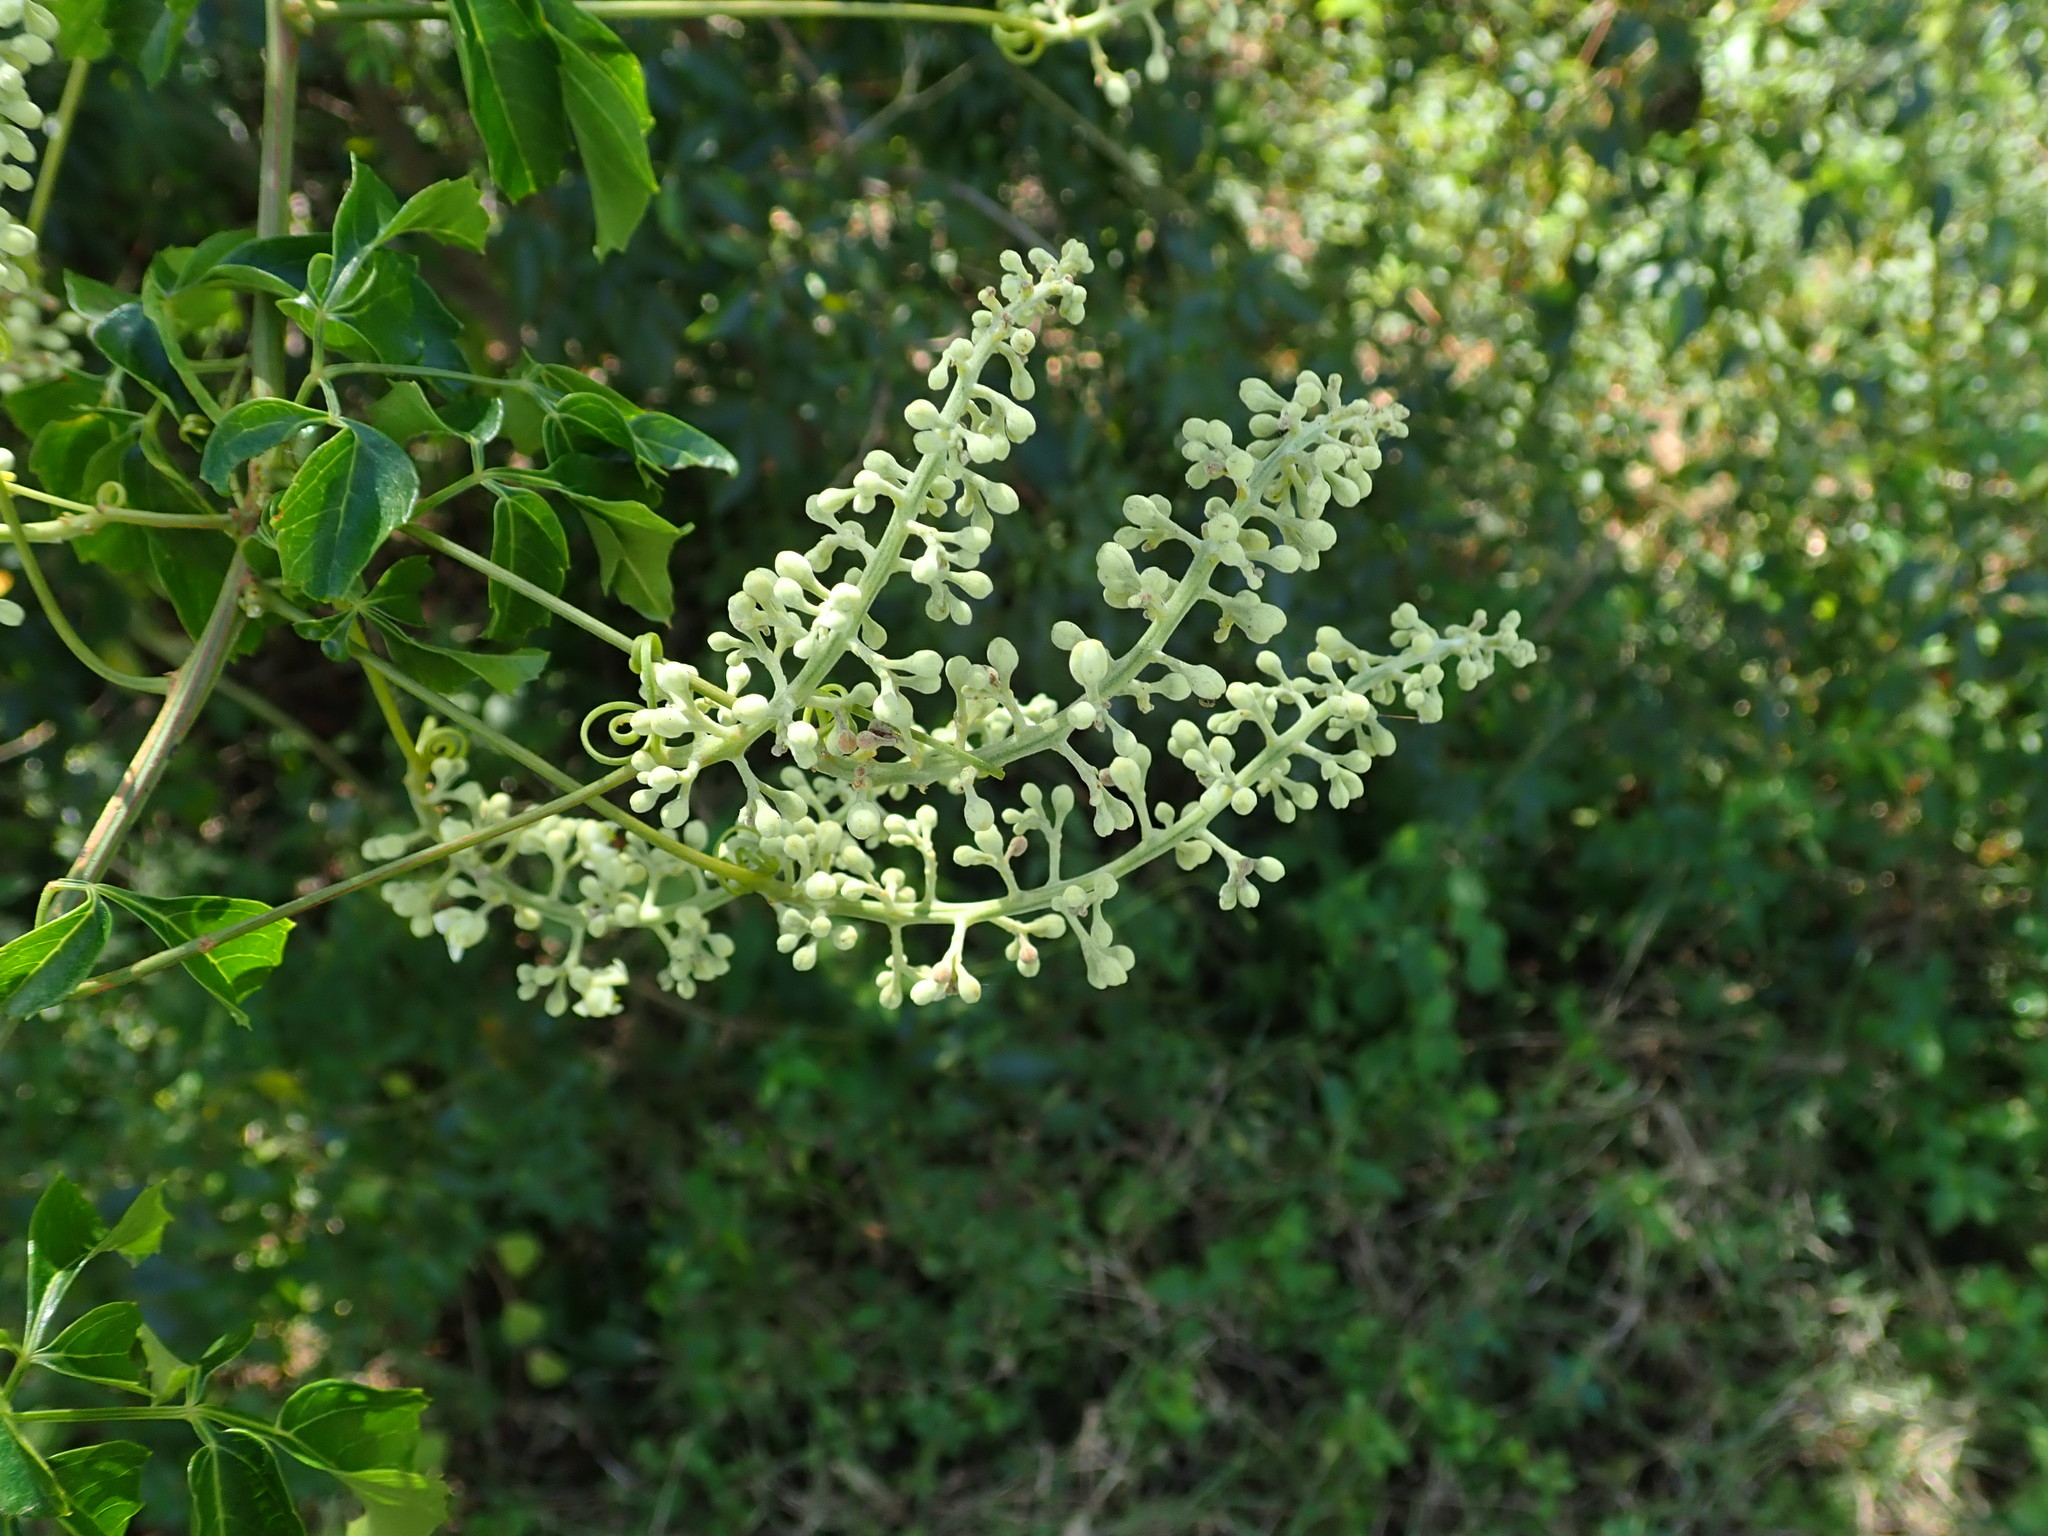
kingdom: Plantae
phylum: Tracheophyta
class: Magnoliopsida
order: Sapindales
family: Sapindaceae
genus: Serjania
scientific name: Serjania lucida
